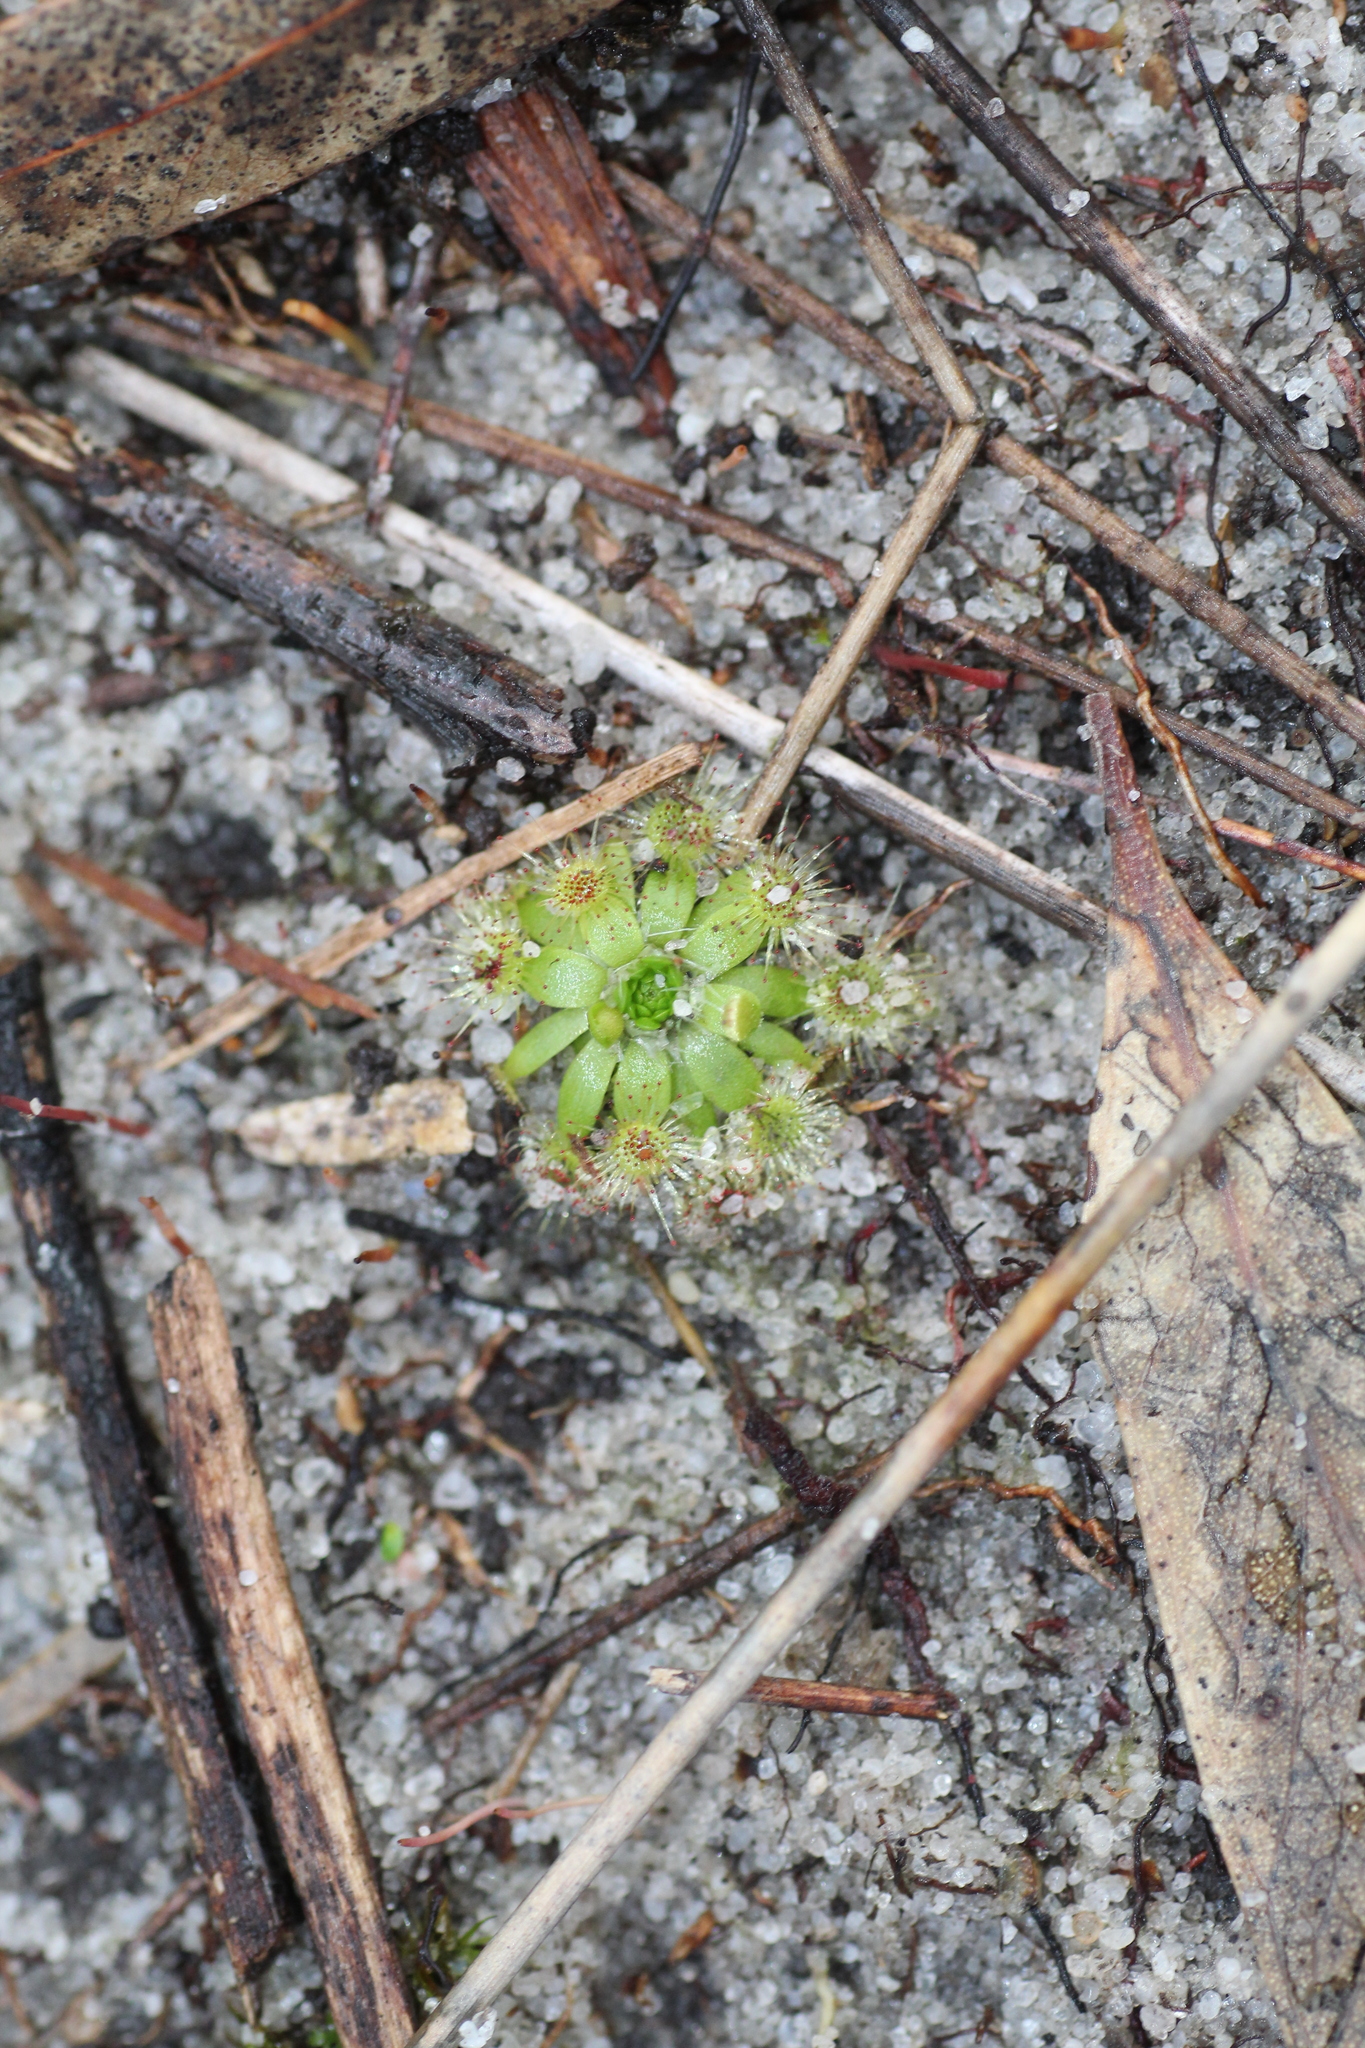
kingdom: Plantae
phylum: Tracheophyta
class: Magnoliopsida
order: Caryophyllales
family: Droseraceae
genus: Drosera
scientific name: Drosera pulchella
